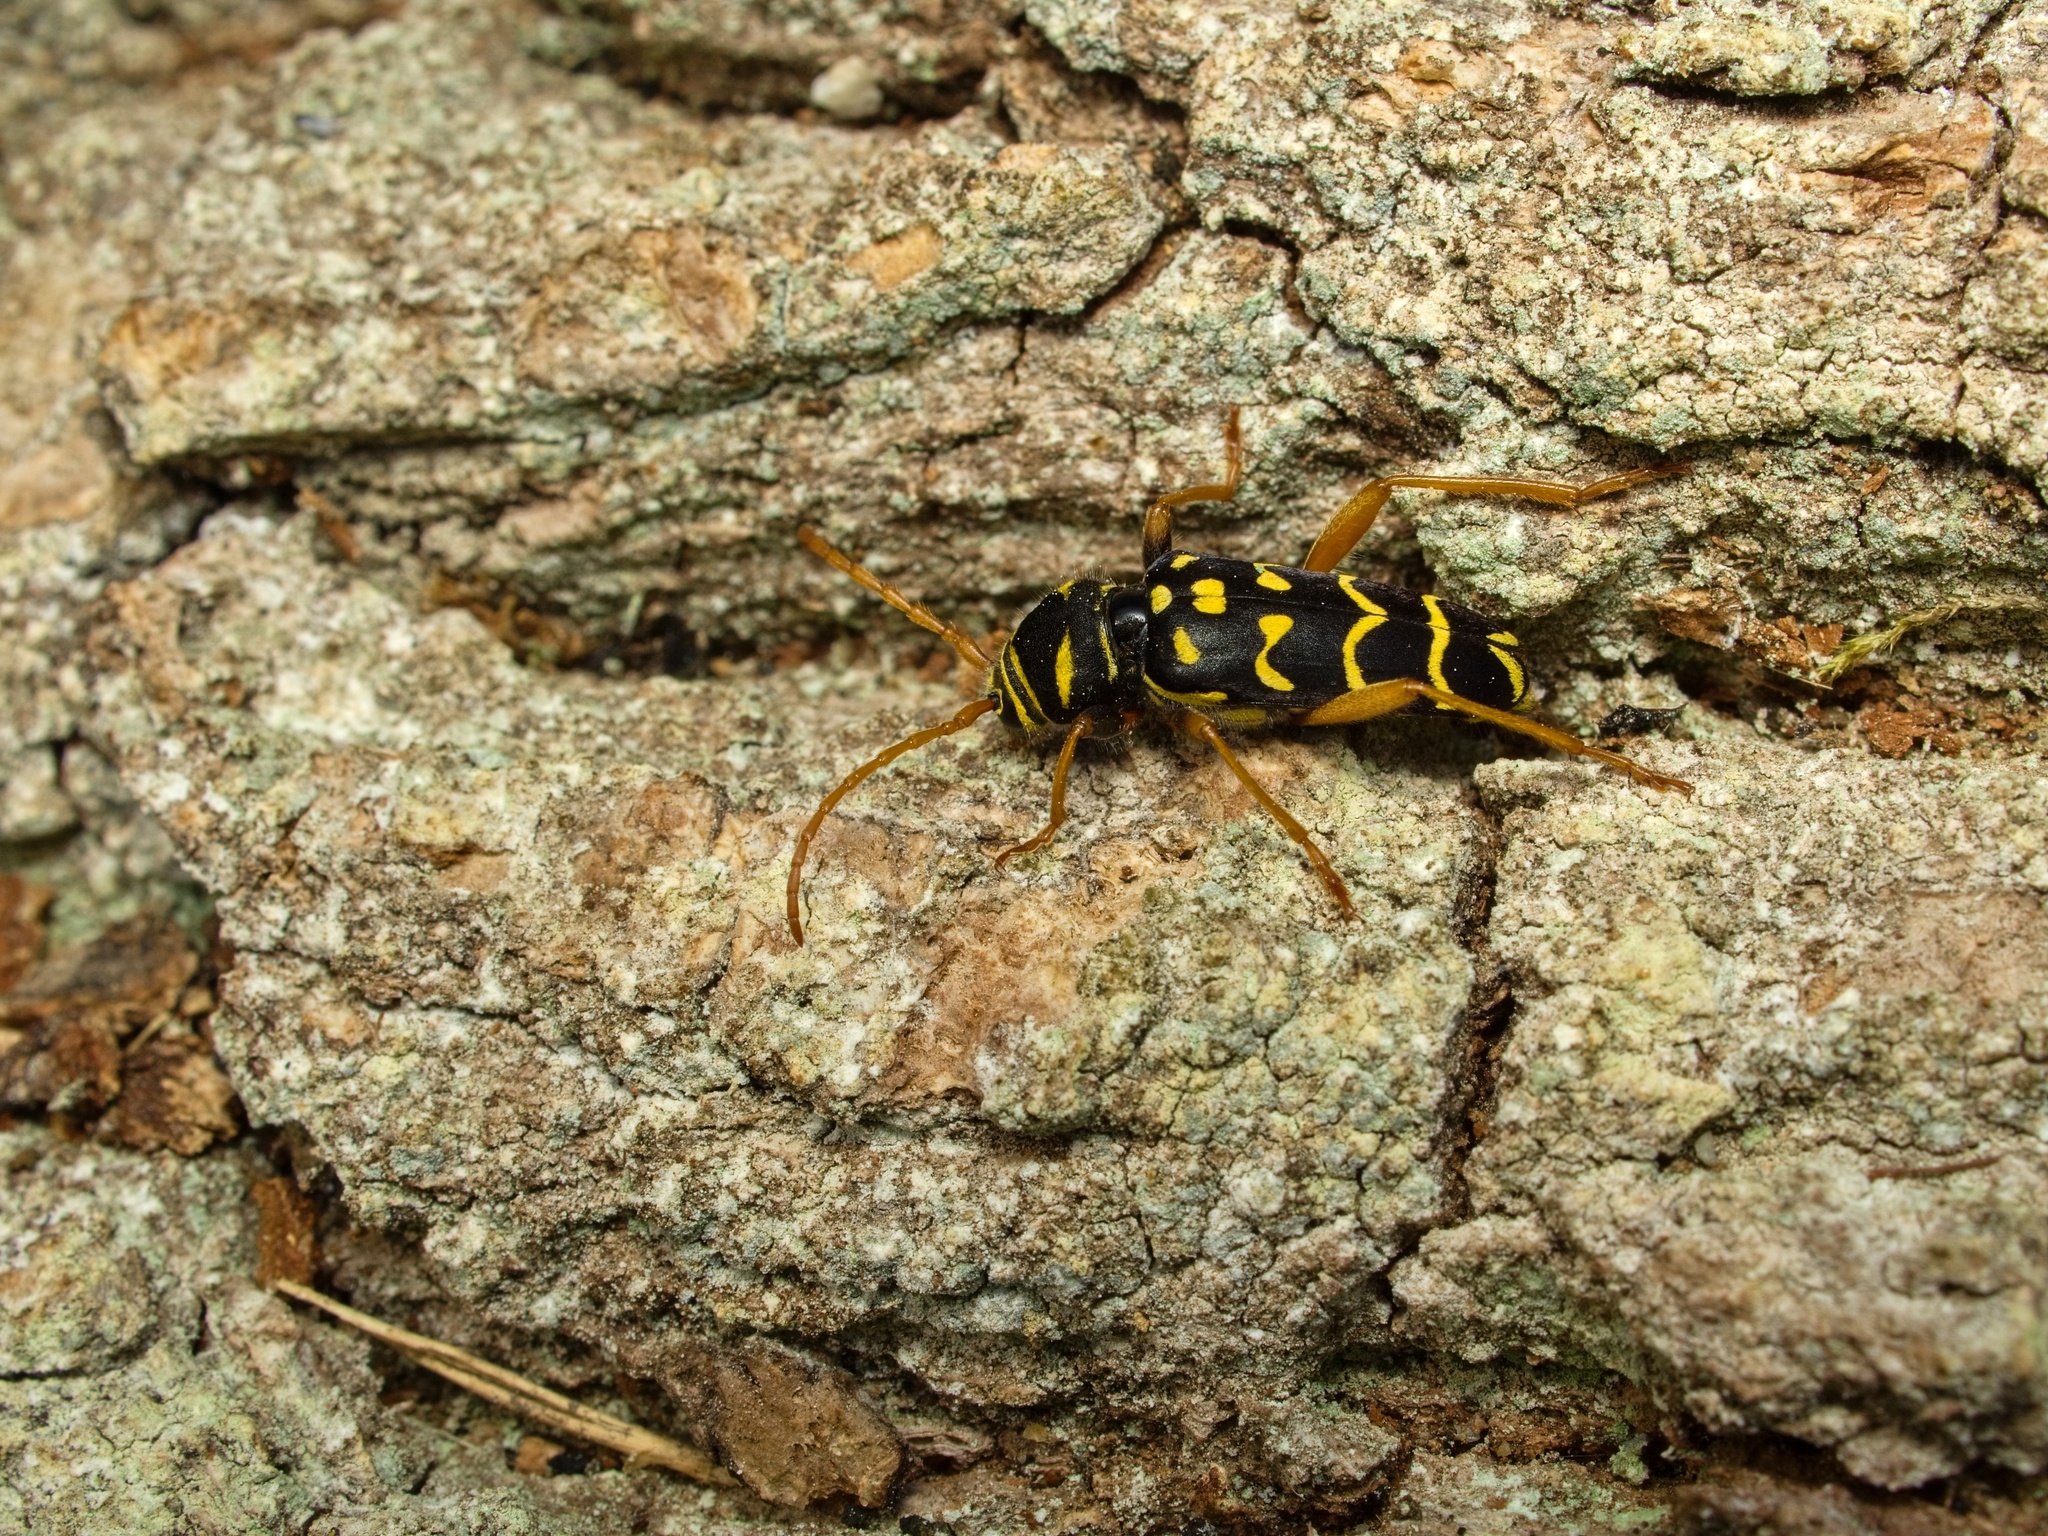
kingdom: Animalia
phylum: Arthropoda
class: Insecta
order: Coleoptera
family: Cerambycidae
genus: Plagionotus
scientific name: Plagionotus arcuatus
